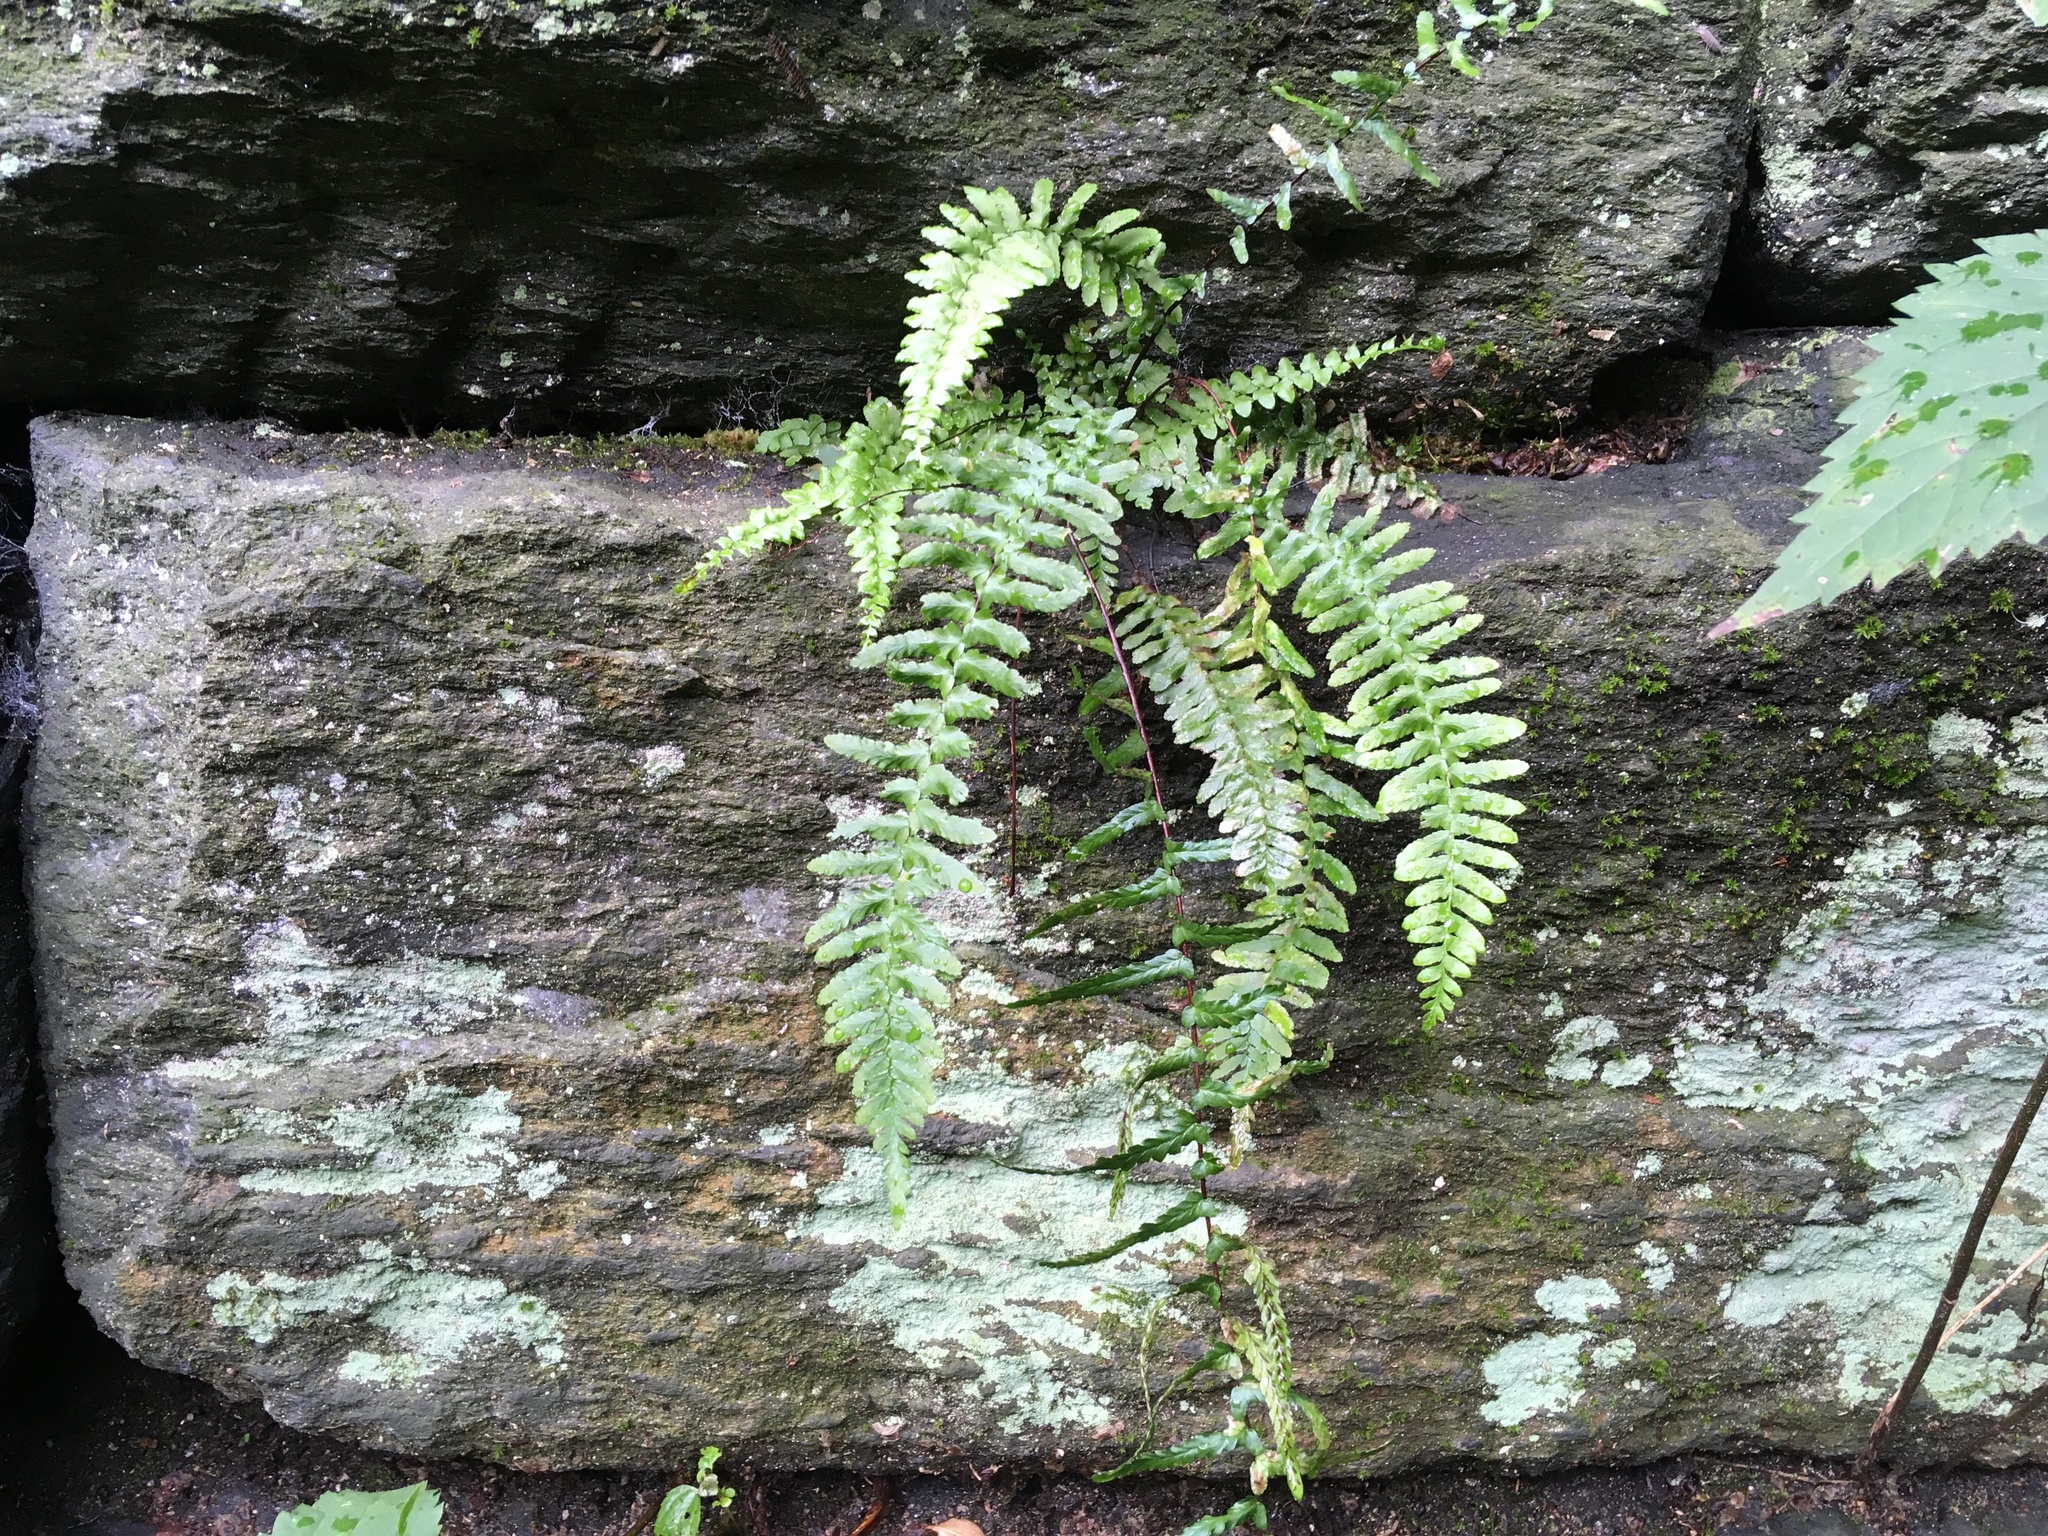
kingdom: Plantae
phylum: Tracheophyta
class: Polypodiopsida
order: Polypodiales
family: Aspleniaceae
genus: Asplenium
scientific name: Asplenium platyneuron
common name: Ebony spleenwort
